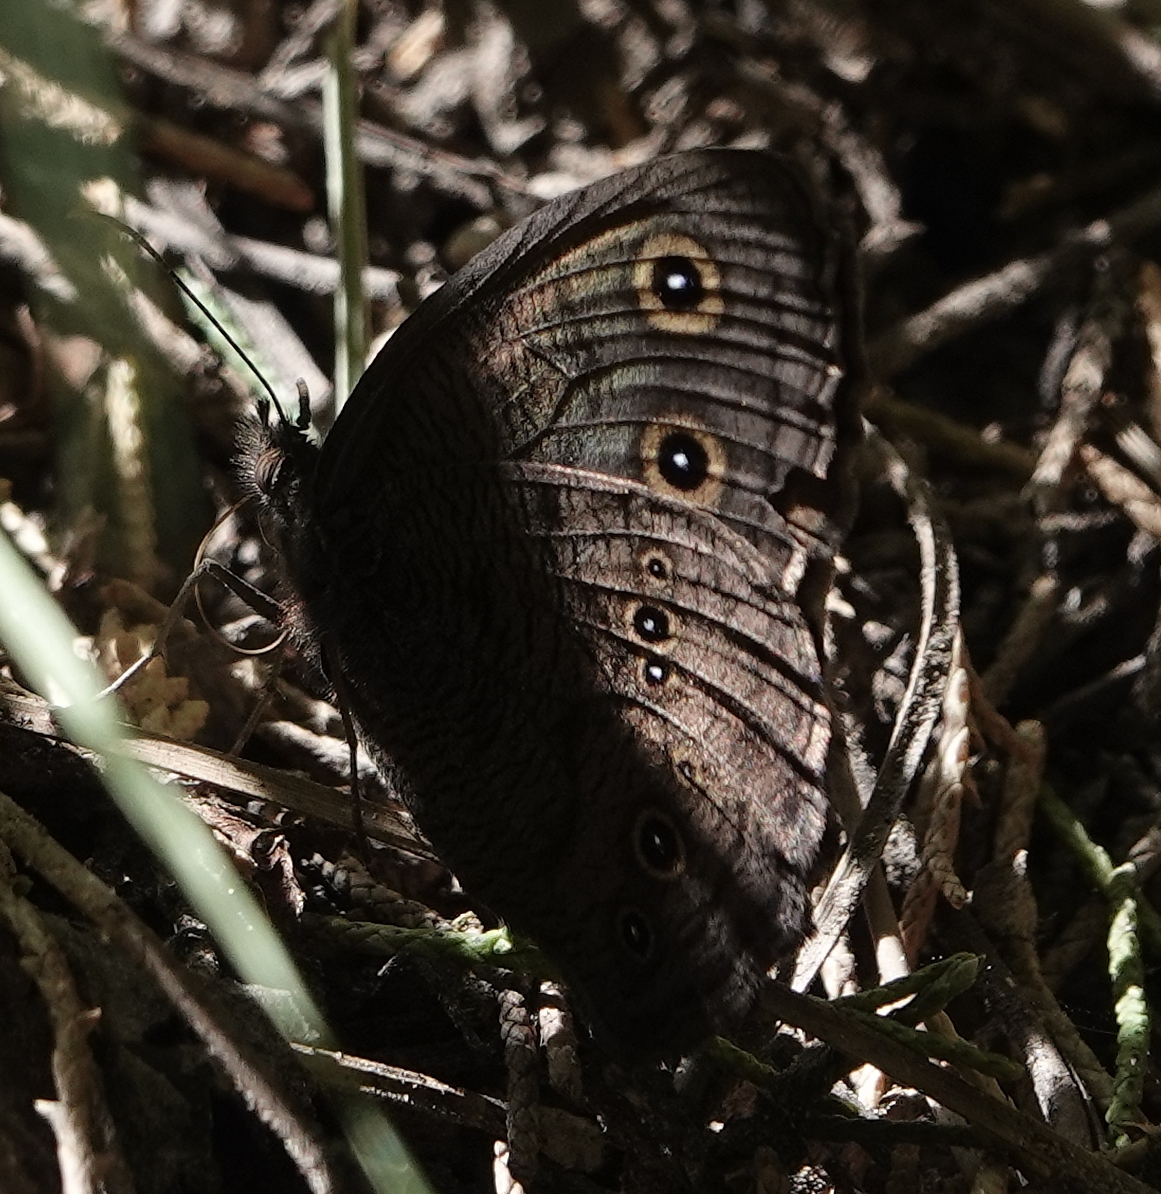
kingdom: Animalia
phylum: Arthropoda
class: Insecta
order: Lepidoptera
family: Nymphalidae
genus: Cercyonis
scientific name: Cercyonis pegala
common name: Common wood-nymph
